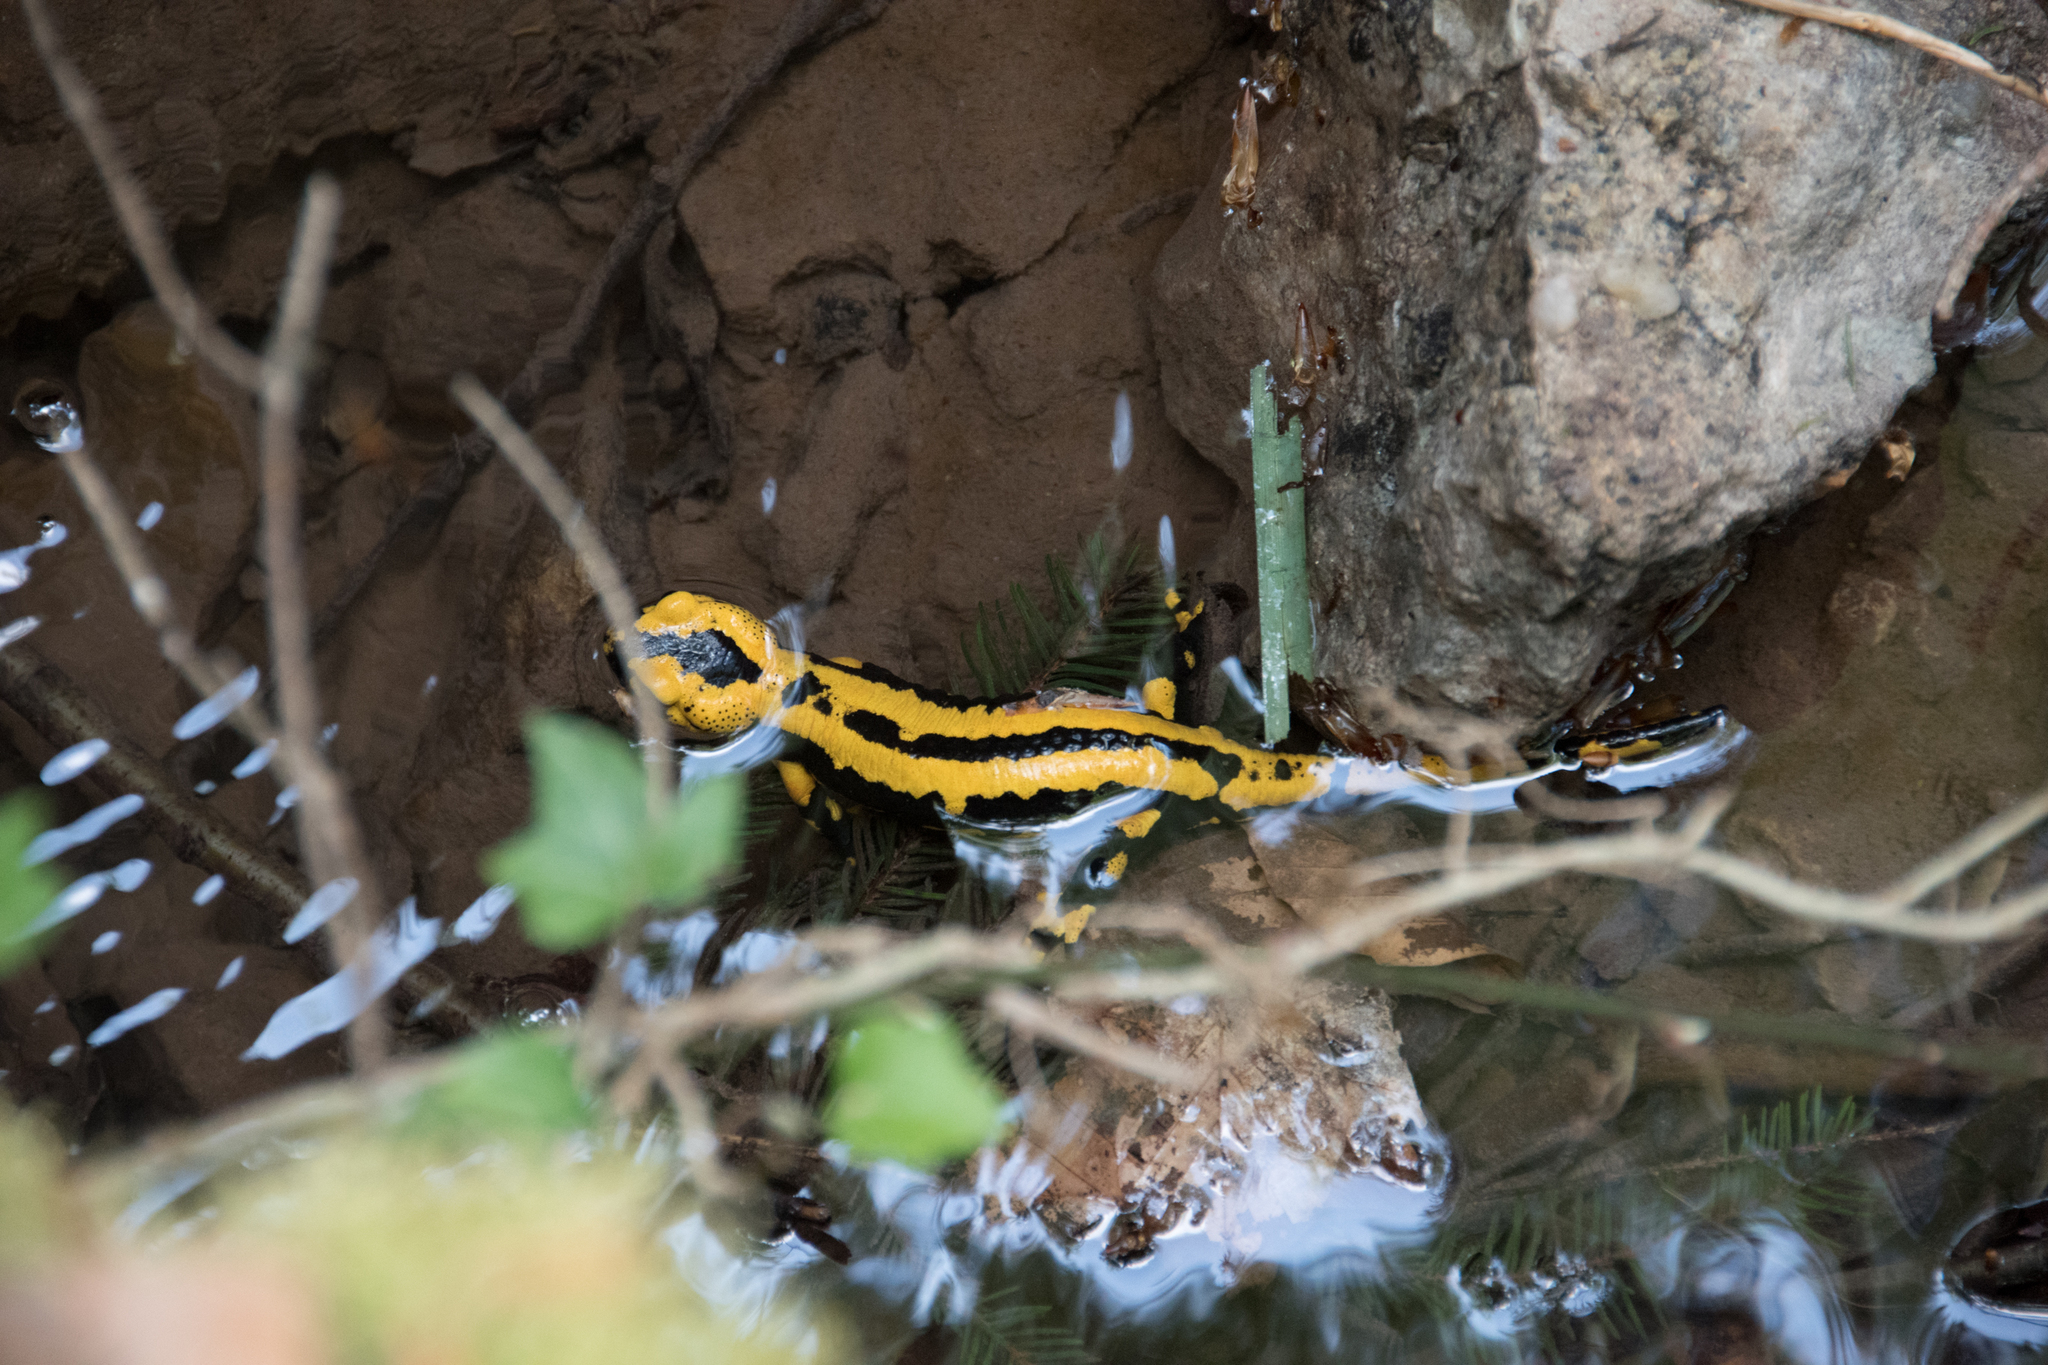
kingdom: Animalia
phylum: Chordata
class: Amphibia
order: Caudata
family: Salamandridae
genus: Salamandra
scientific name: Salamandra salamandra
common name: Fire salamander
